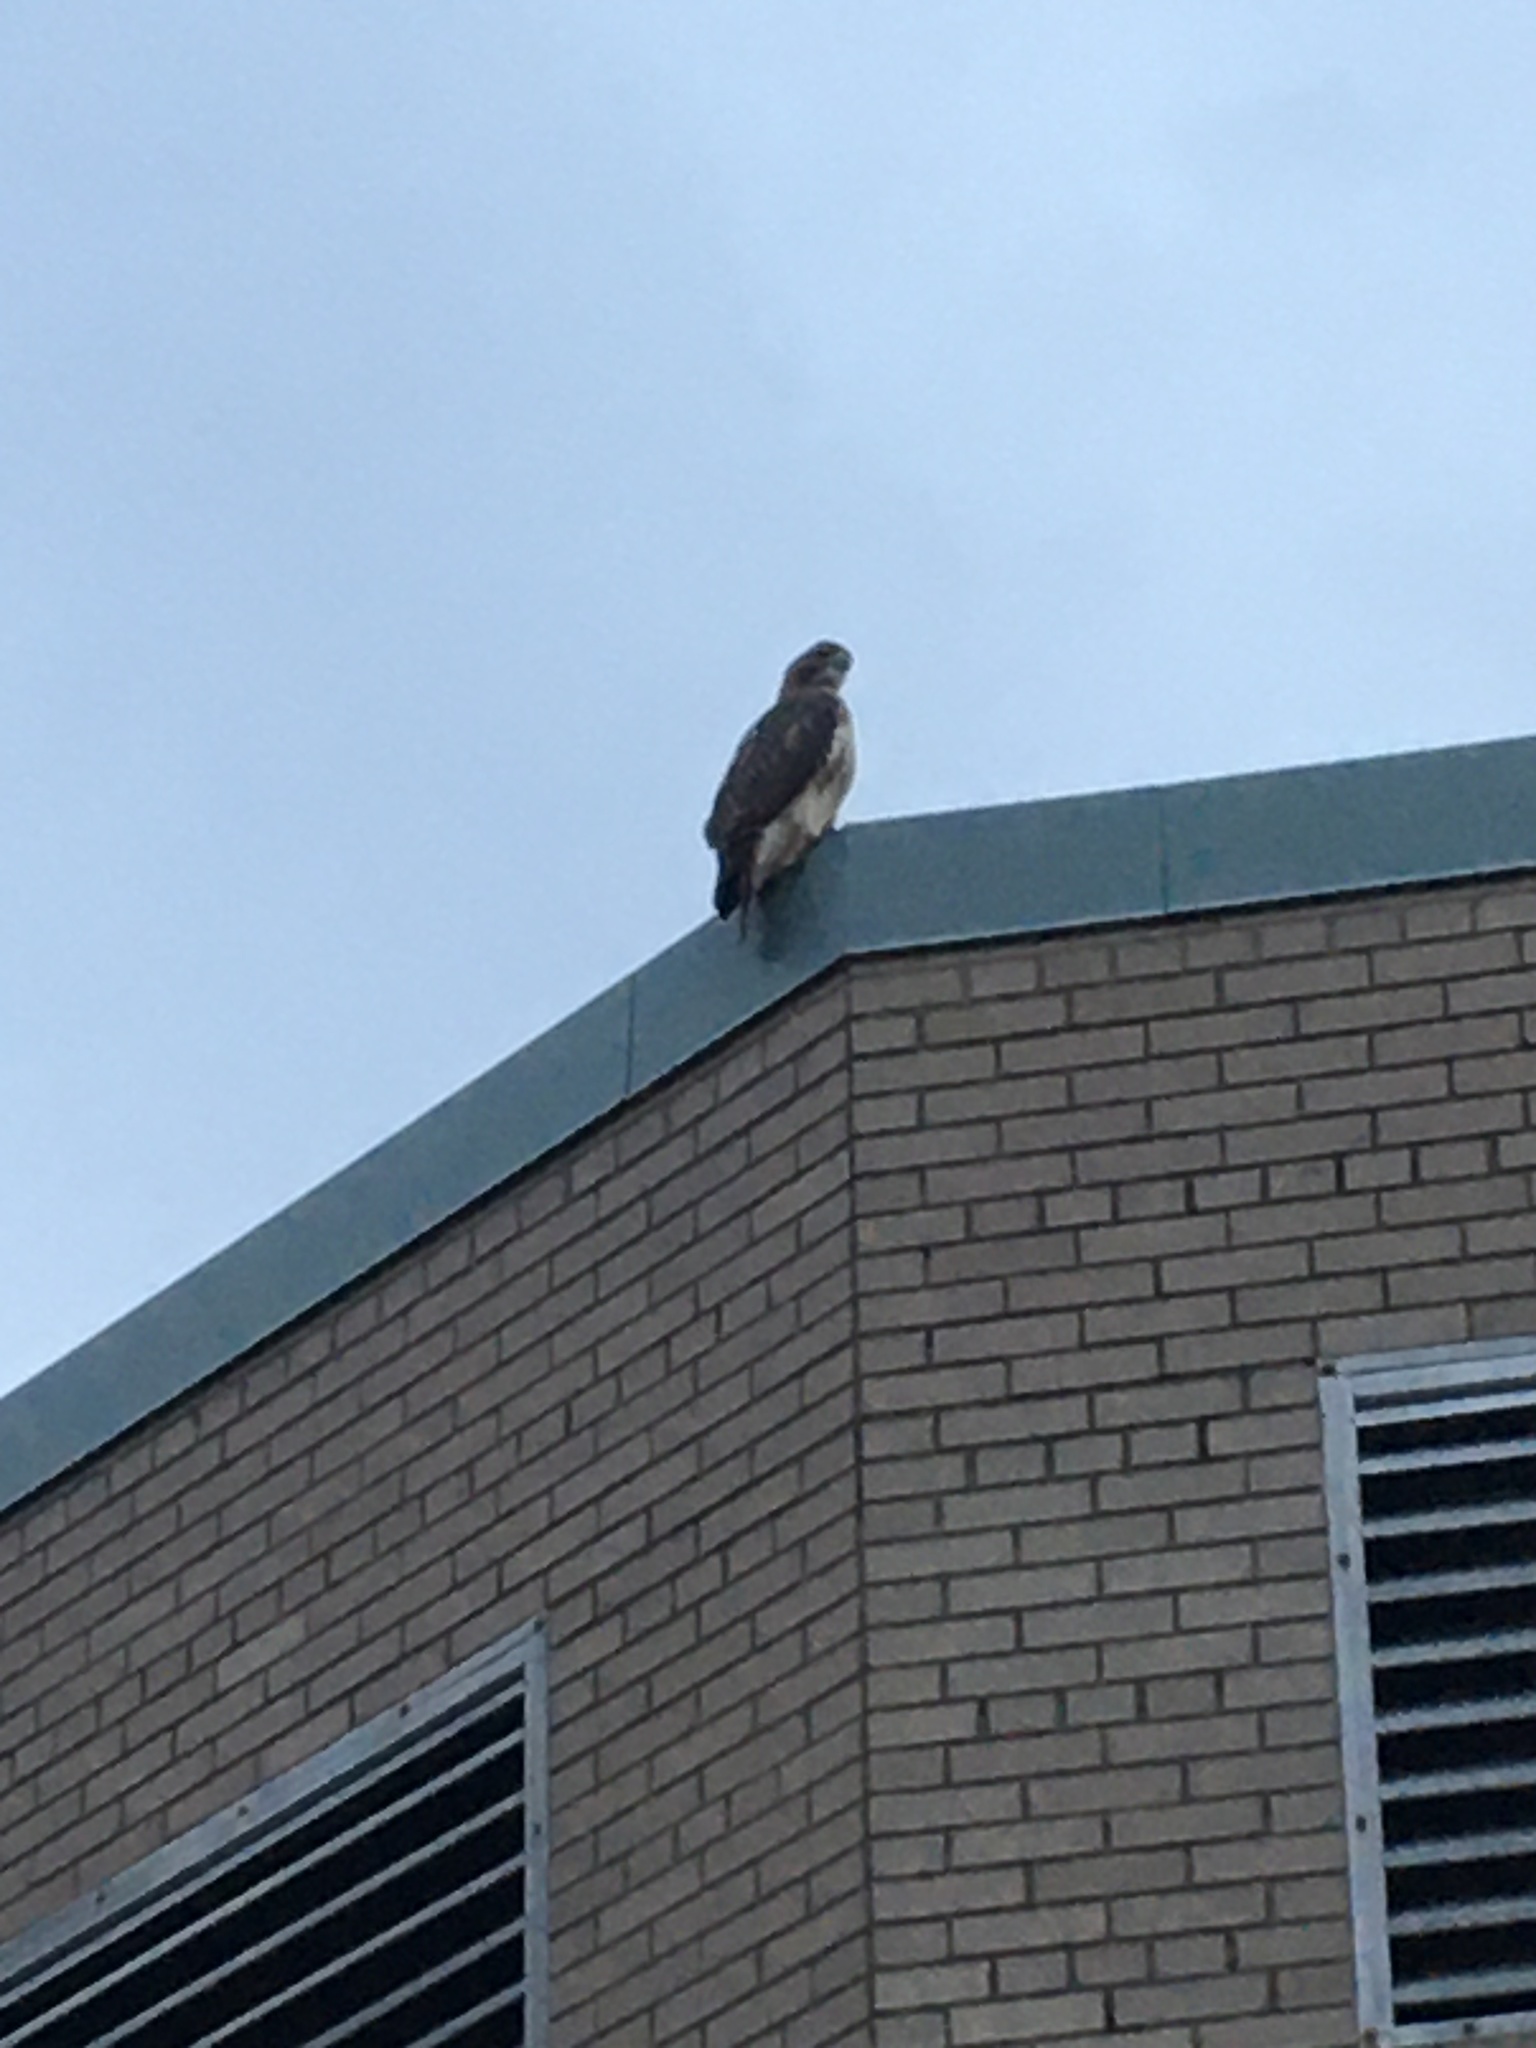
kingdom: Animalia
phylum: Chordata
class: Aves
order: Accipitriformes
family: Accipitridae
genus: Buteo
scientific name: Buteo jamaicensis
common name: Red-tailed hawk
